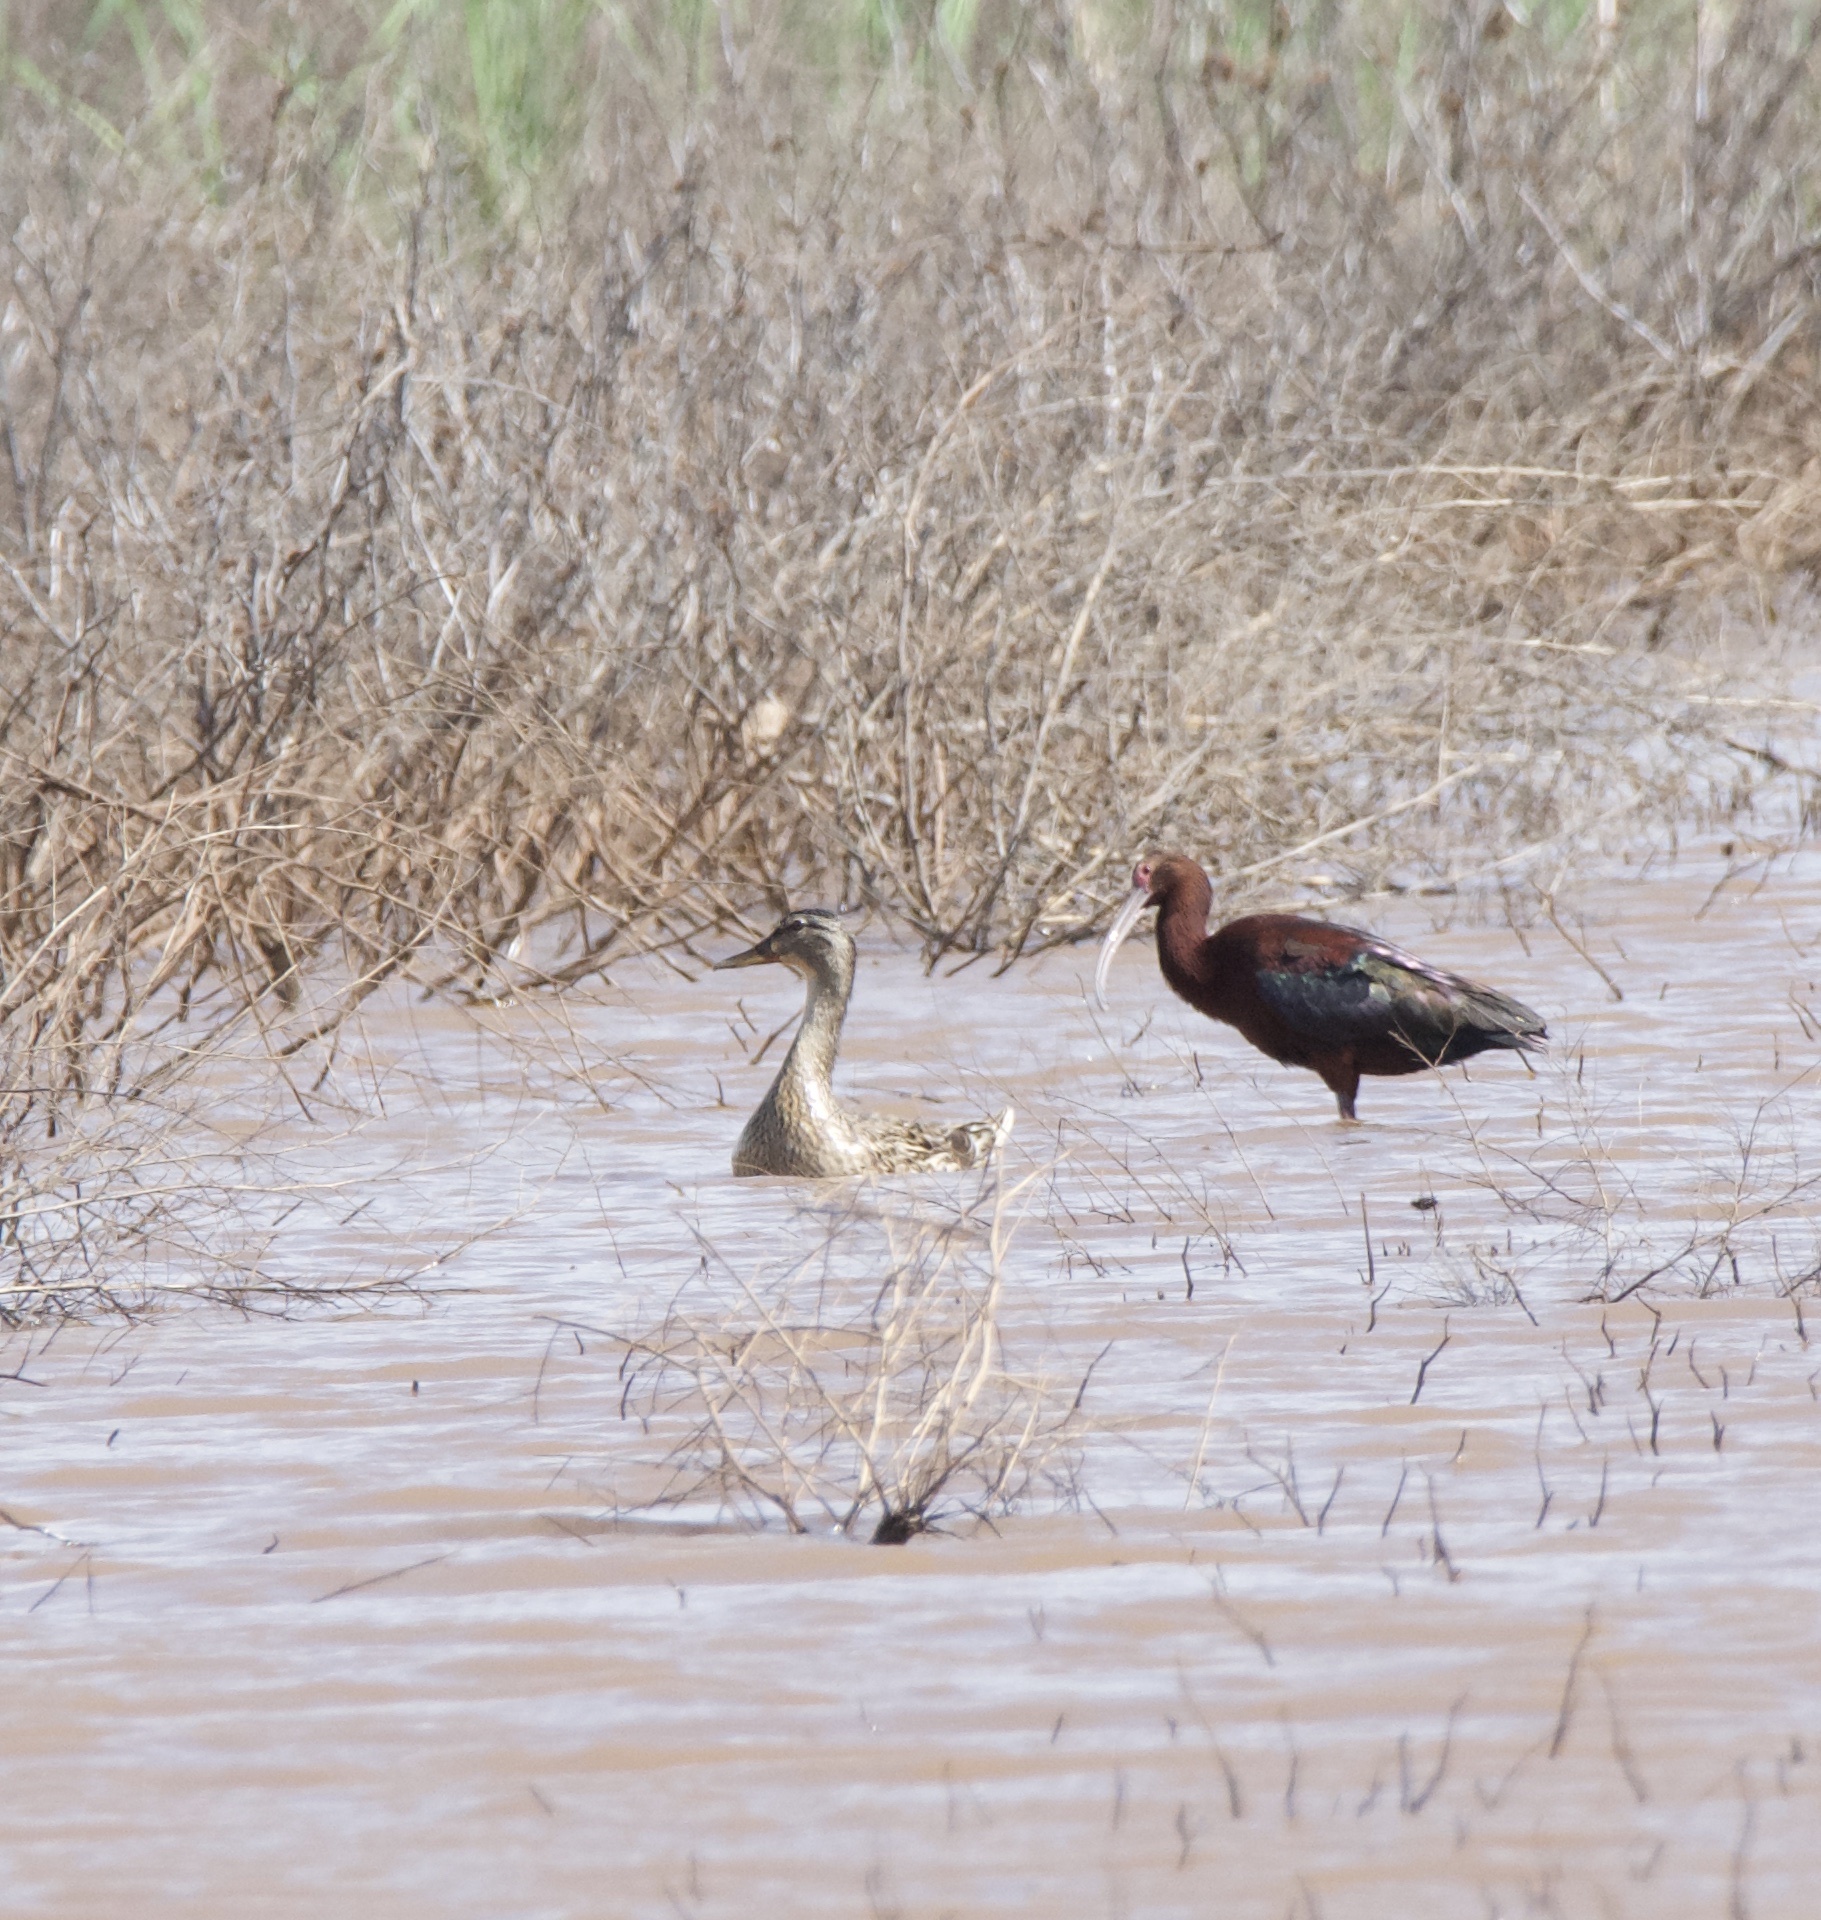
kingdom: Animalia
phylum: Chordata
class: Aves
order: Anseriformes
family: Anatidae
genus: Anas
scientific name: Anas platyrhynchos
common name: Mallard
